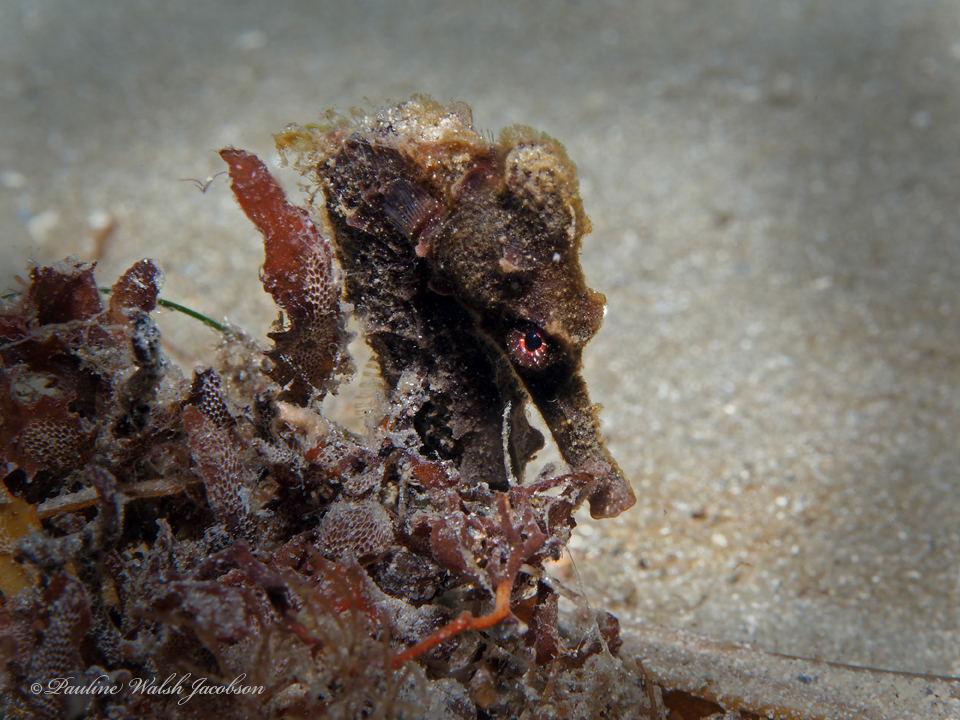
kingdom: Animalia
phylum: Chordata
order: Syngnathiformes
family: Syngnathidae
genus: Hippocampus
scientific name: Hippocampus reidi
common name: Slender seahorse
